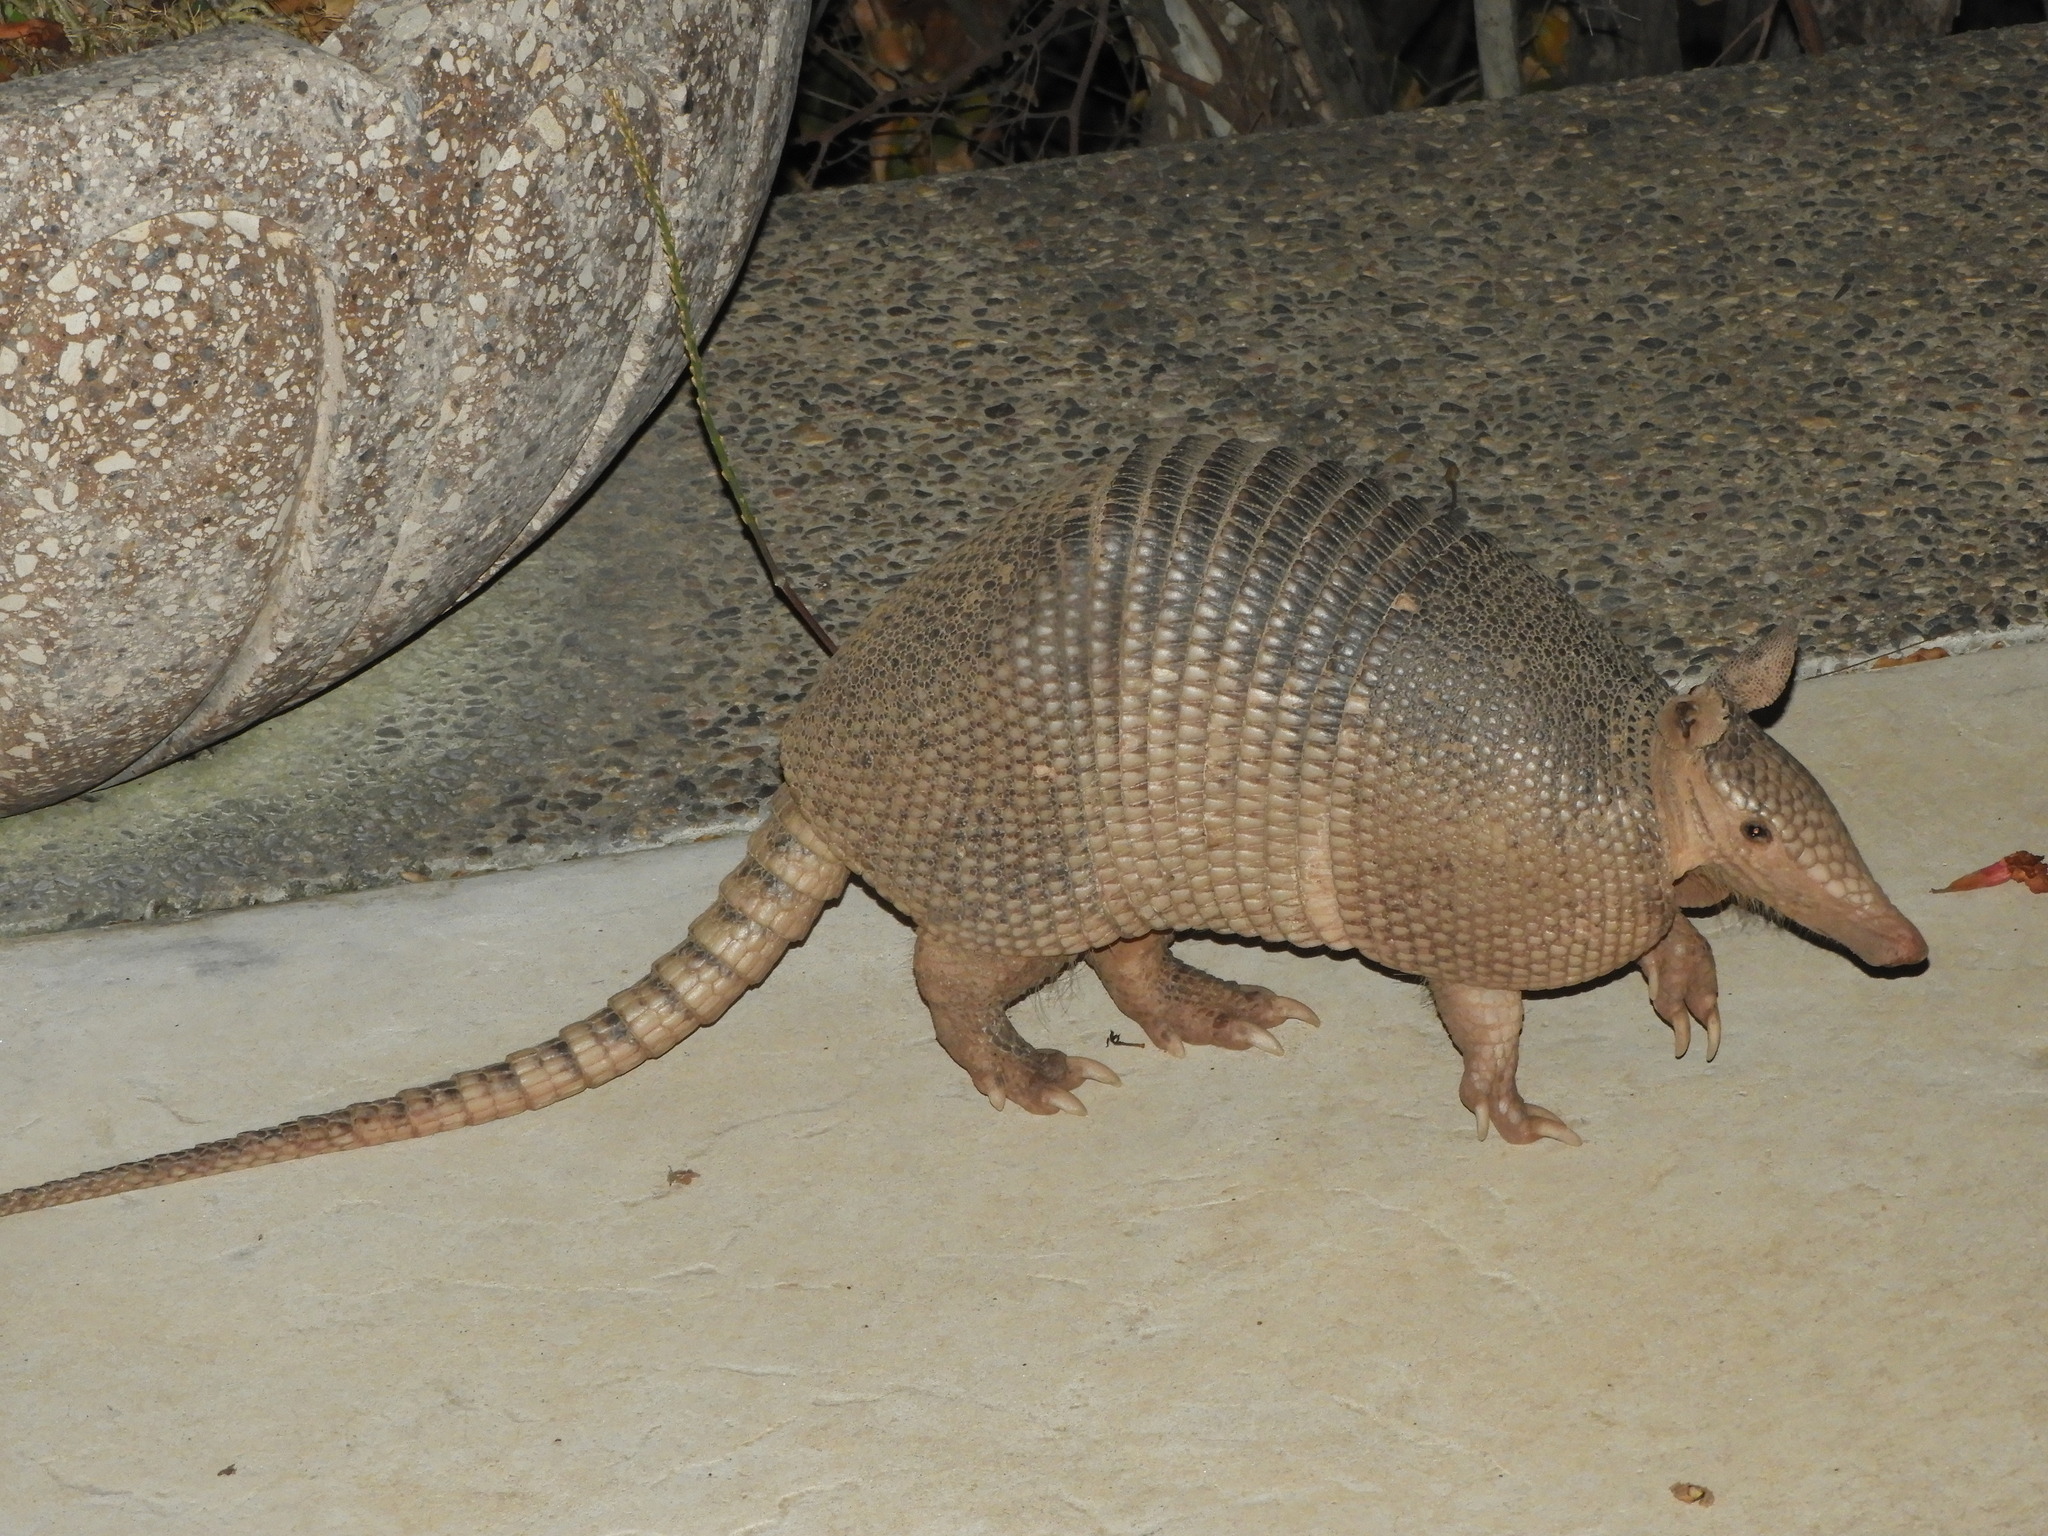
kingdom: Animalia
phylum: Chordata
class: Mammalia
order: Cingulata
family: Dasypodidae
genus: Dasypus
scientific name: Dasypus novemcinctus
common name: Nine-banded armadillo
